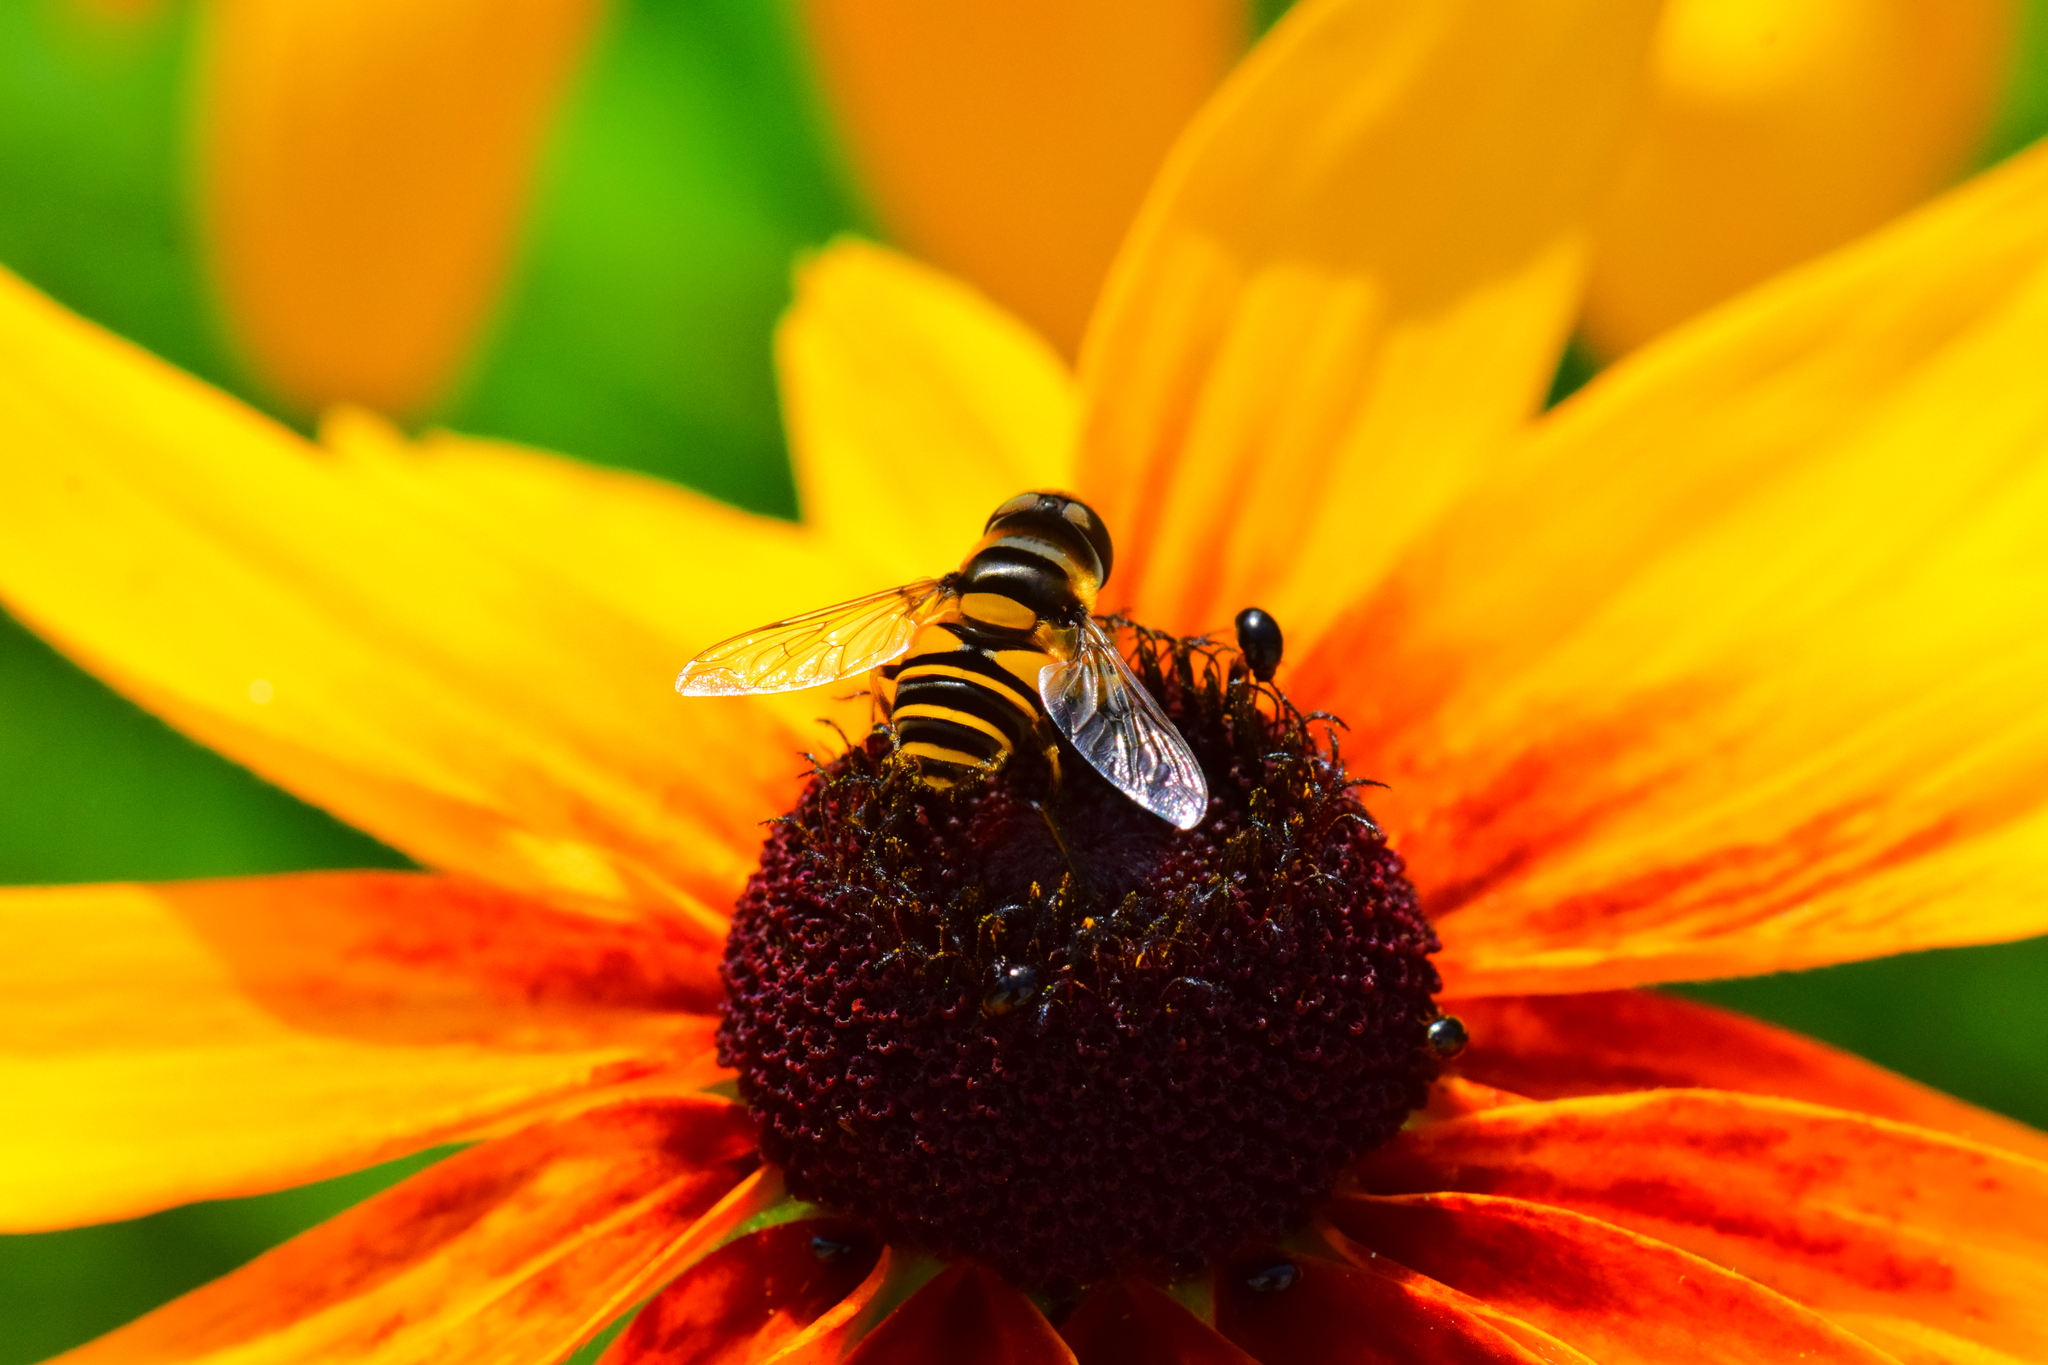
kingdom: Animalia
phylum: Arthropoda
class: Insecta
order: Diptera
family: Syrphidae
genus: Eristalis
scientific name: Eristalis transversa
